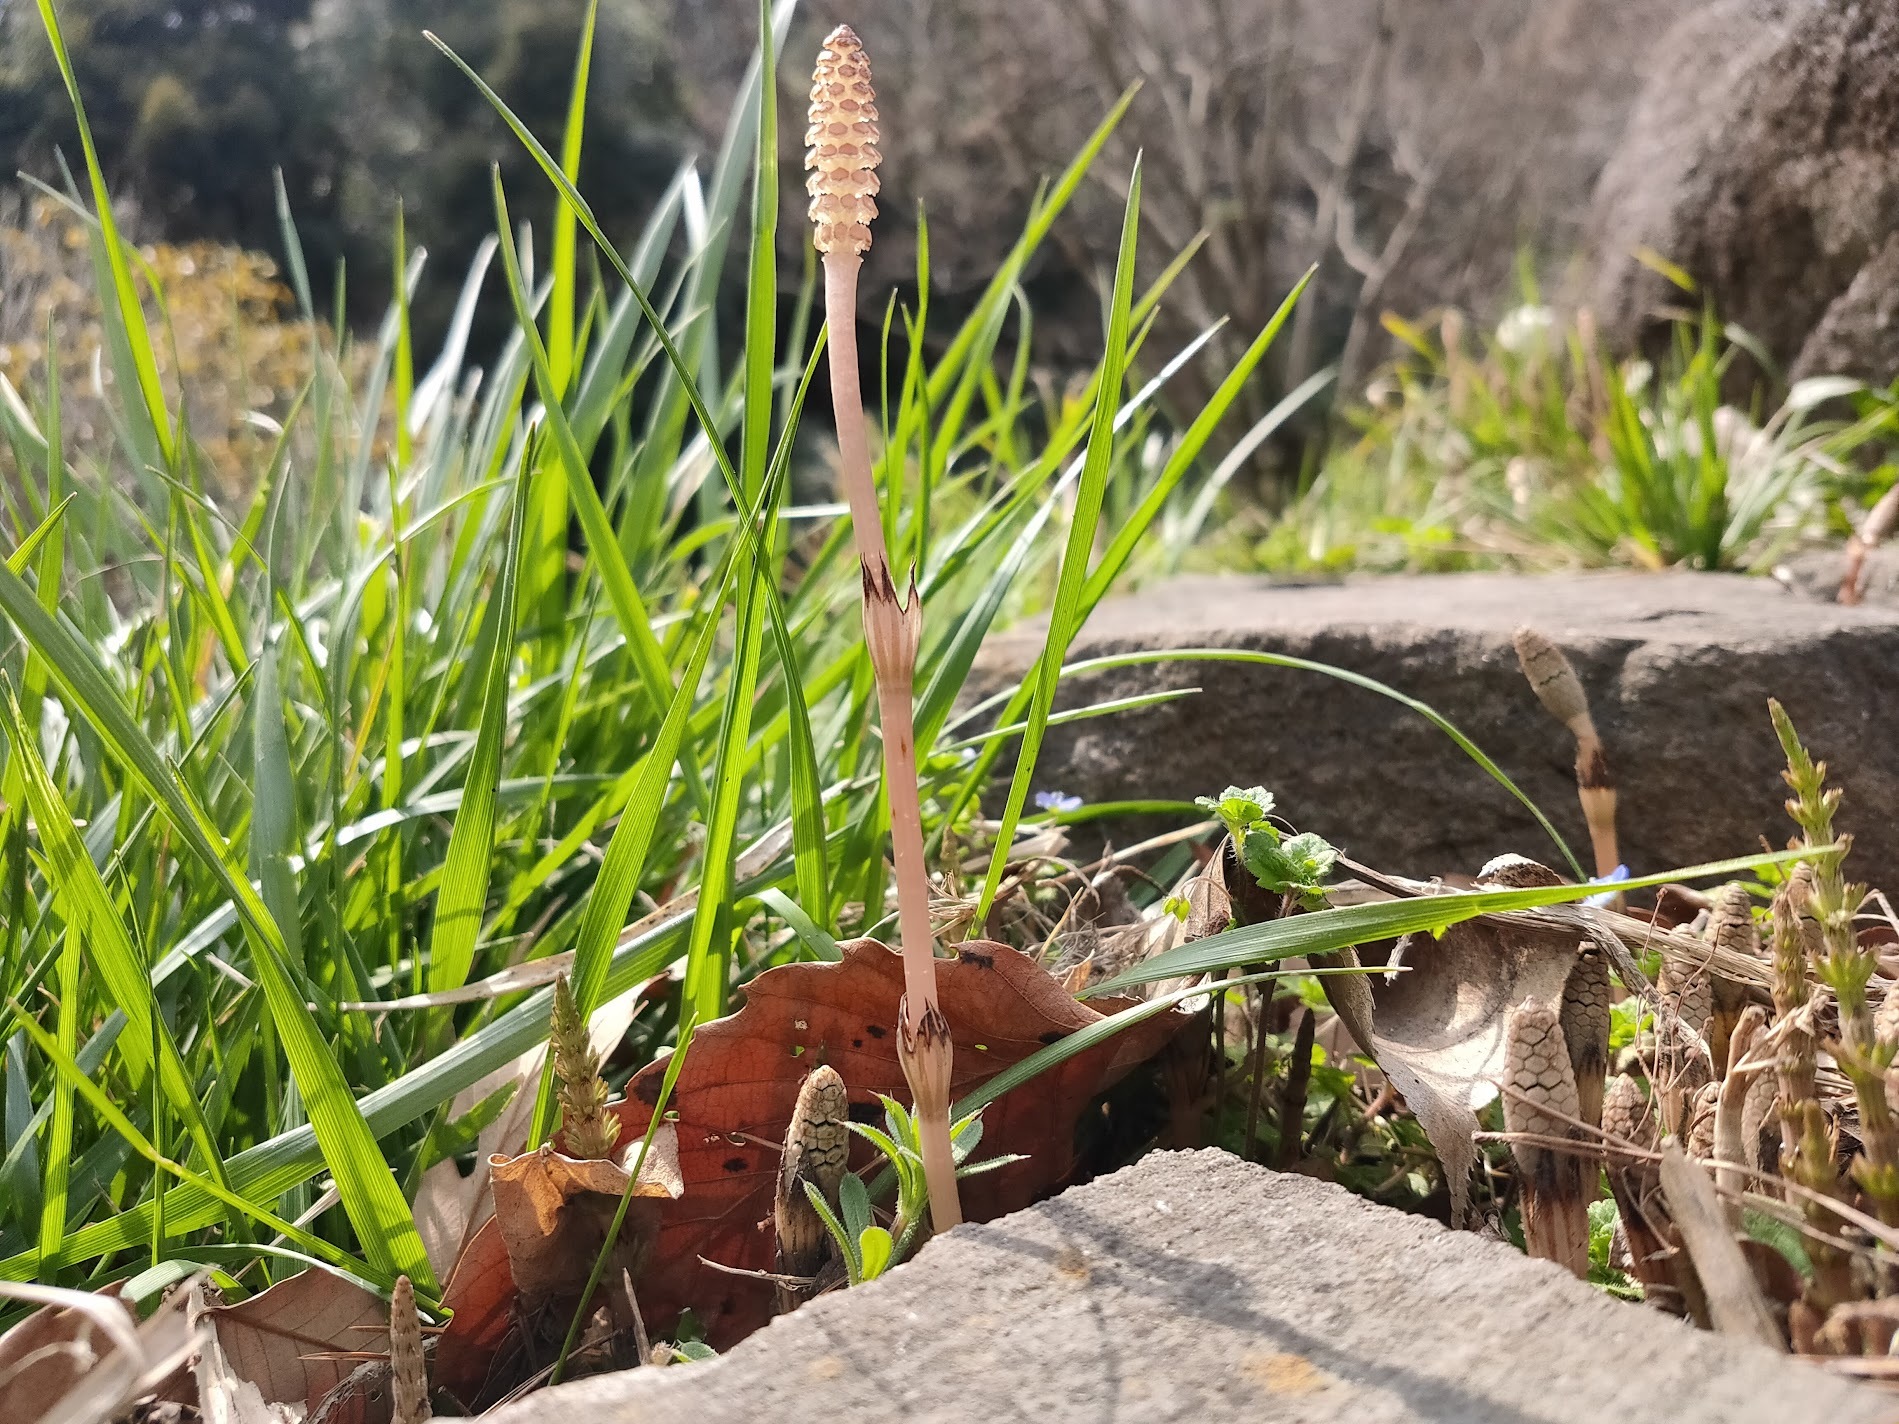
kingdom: Plantae
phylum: Tracheophyta
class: Polypodiopsida
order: Equisetales
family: Equisetaceae
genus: Equisetum
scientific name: Equisetum arvense
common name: Field horsetail
